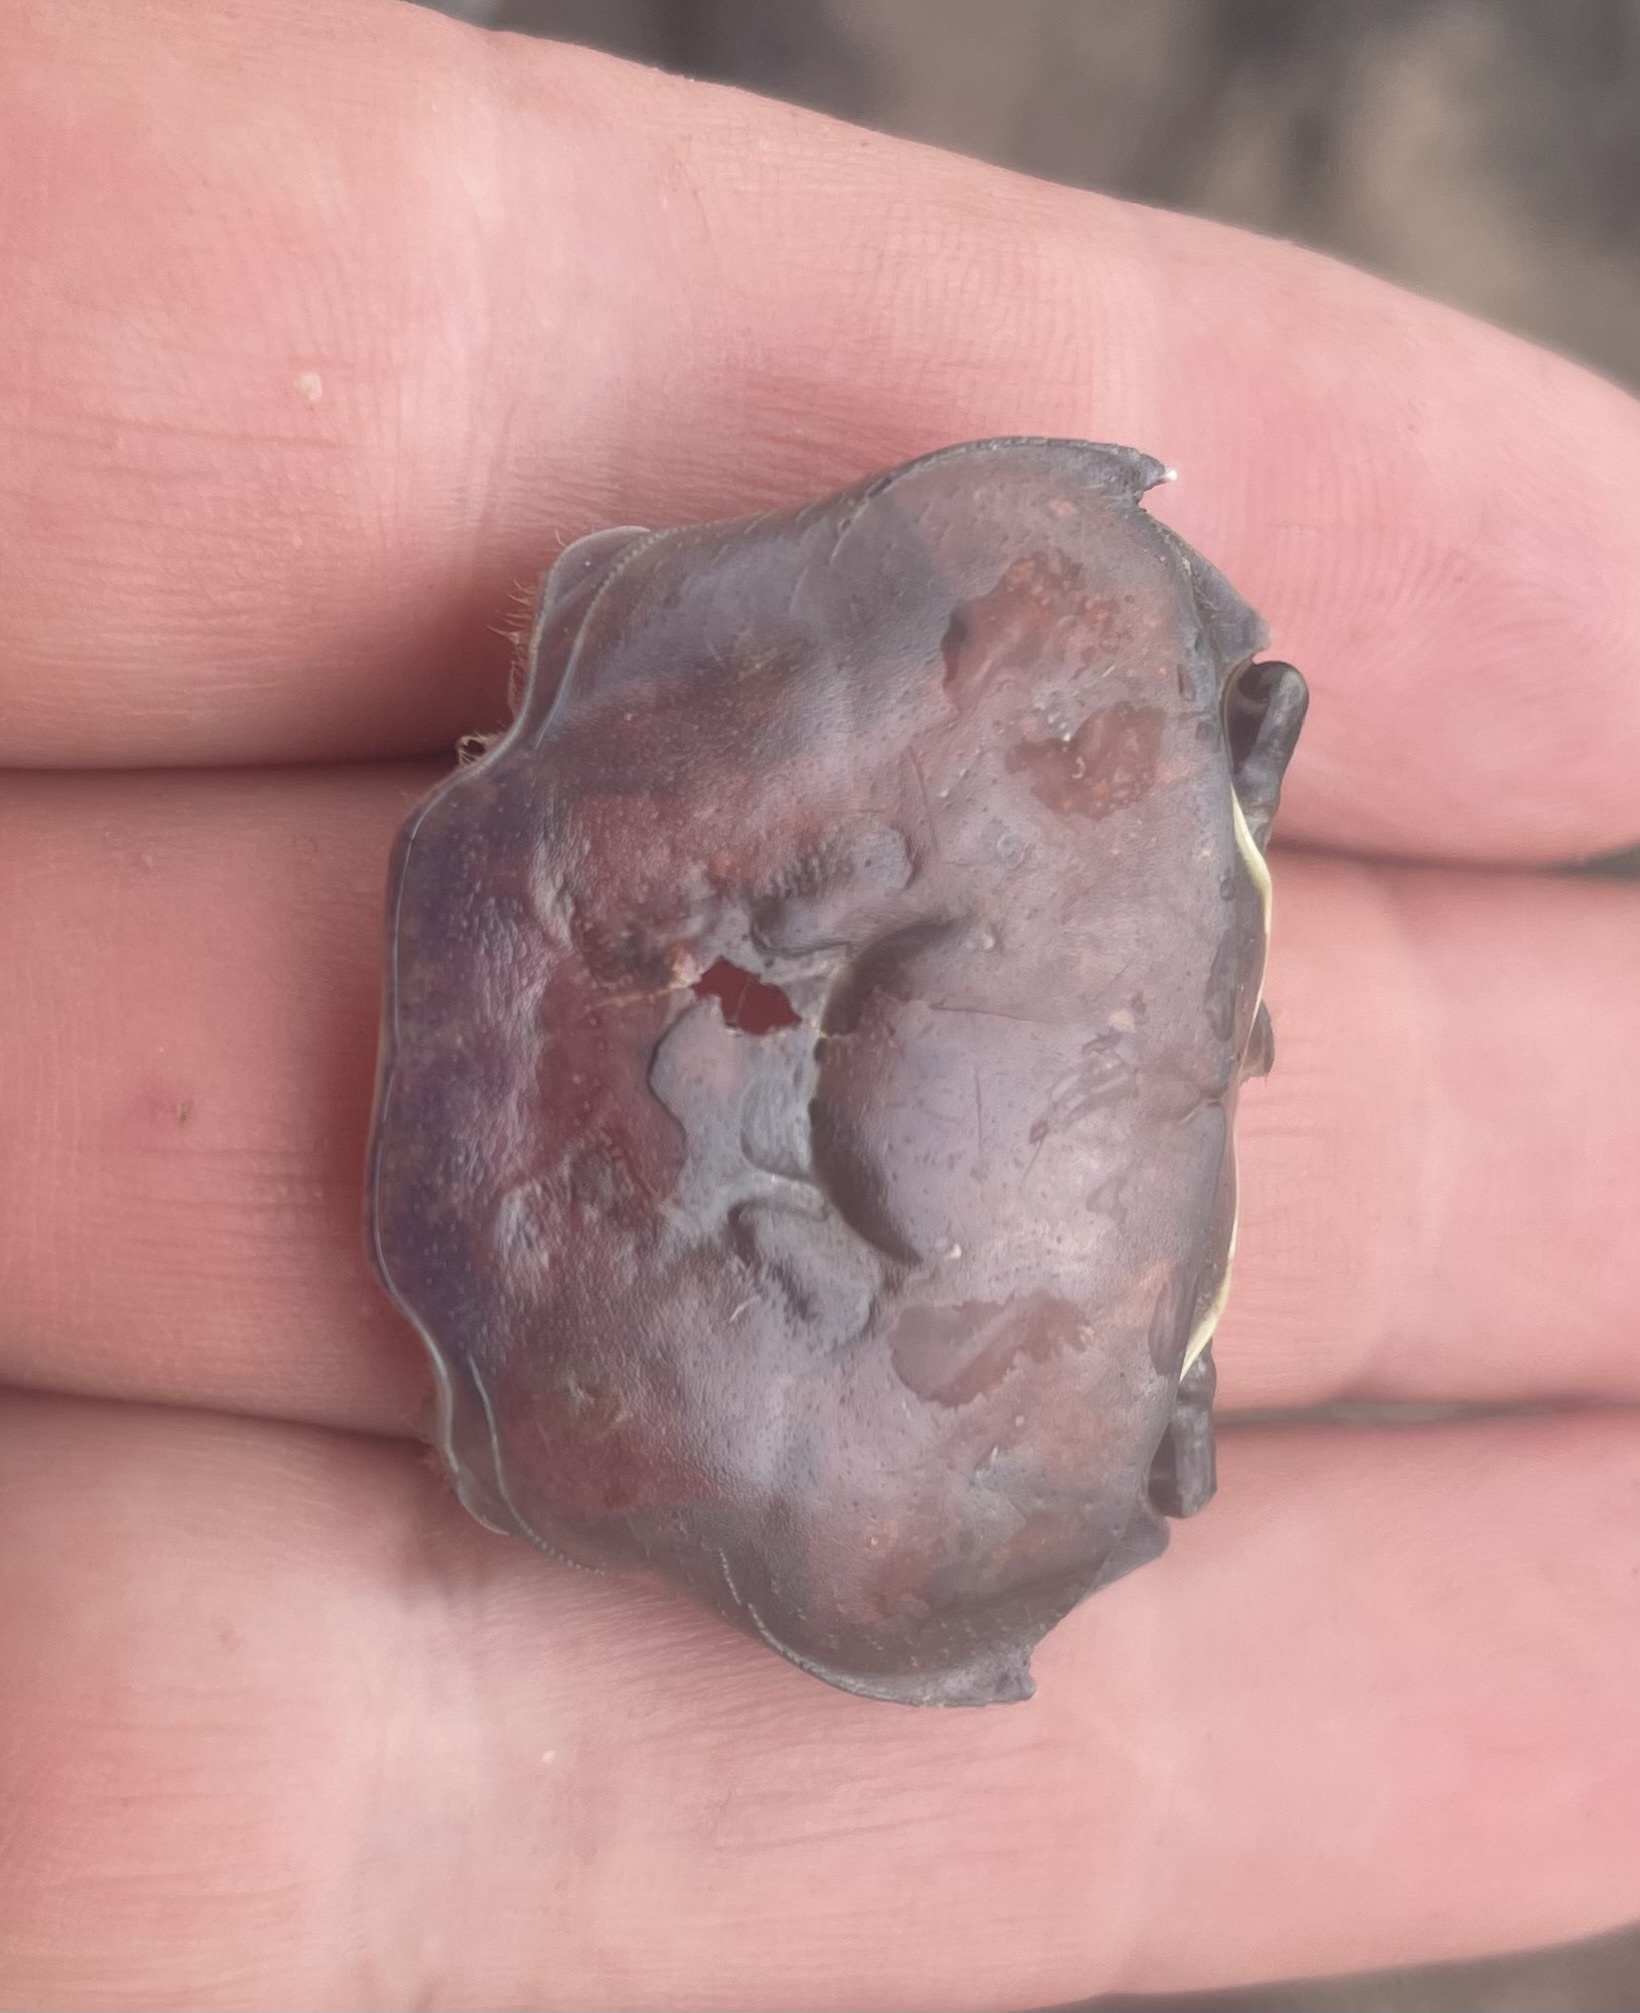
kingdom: Animalia
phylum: Arthropoda
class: Malacostraca
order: Decapoda
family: Potamonautidae
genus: Potamonautes
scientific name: Potamonautes bayonianus
